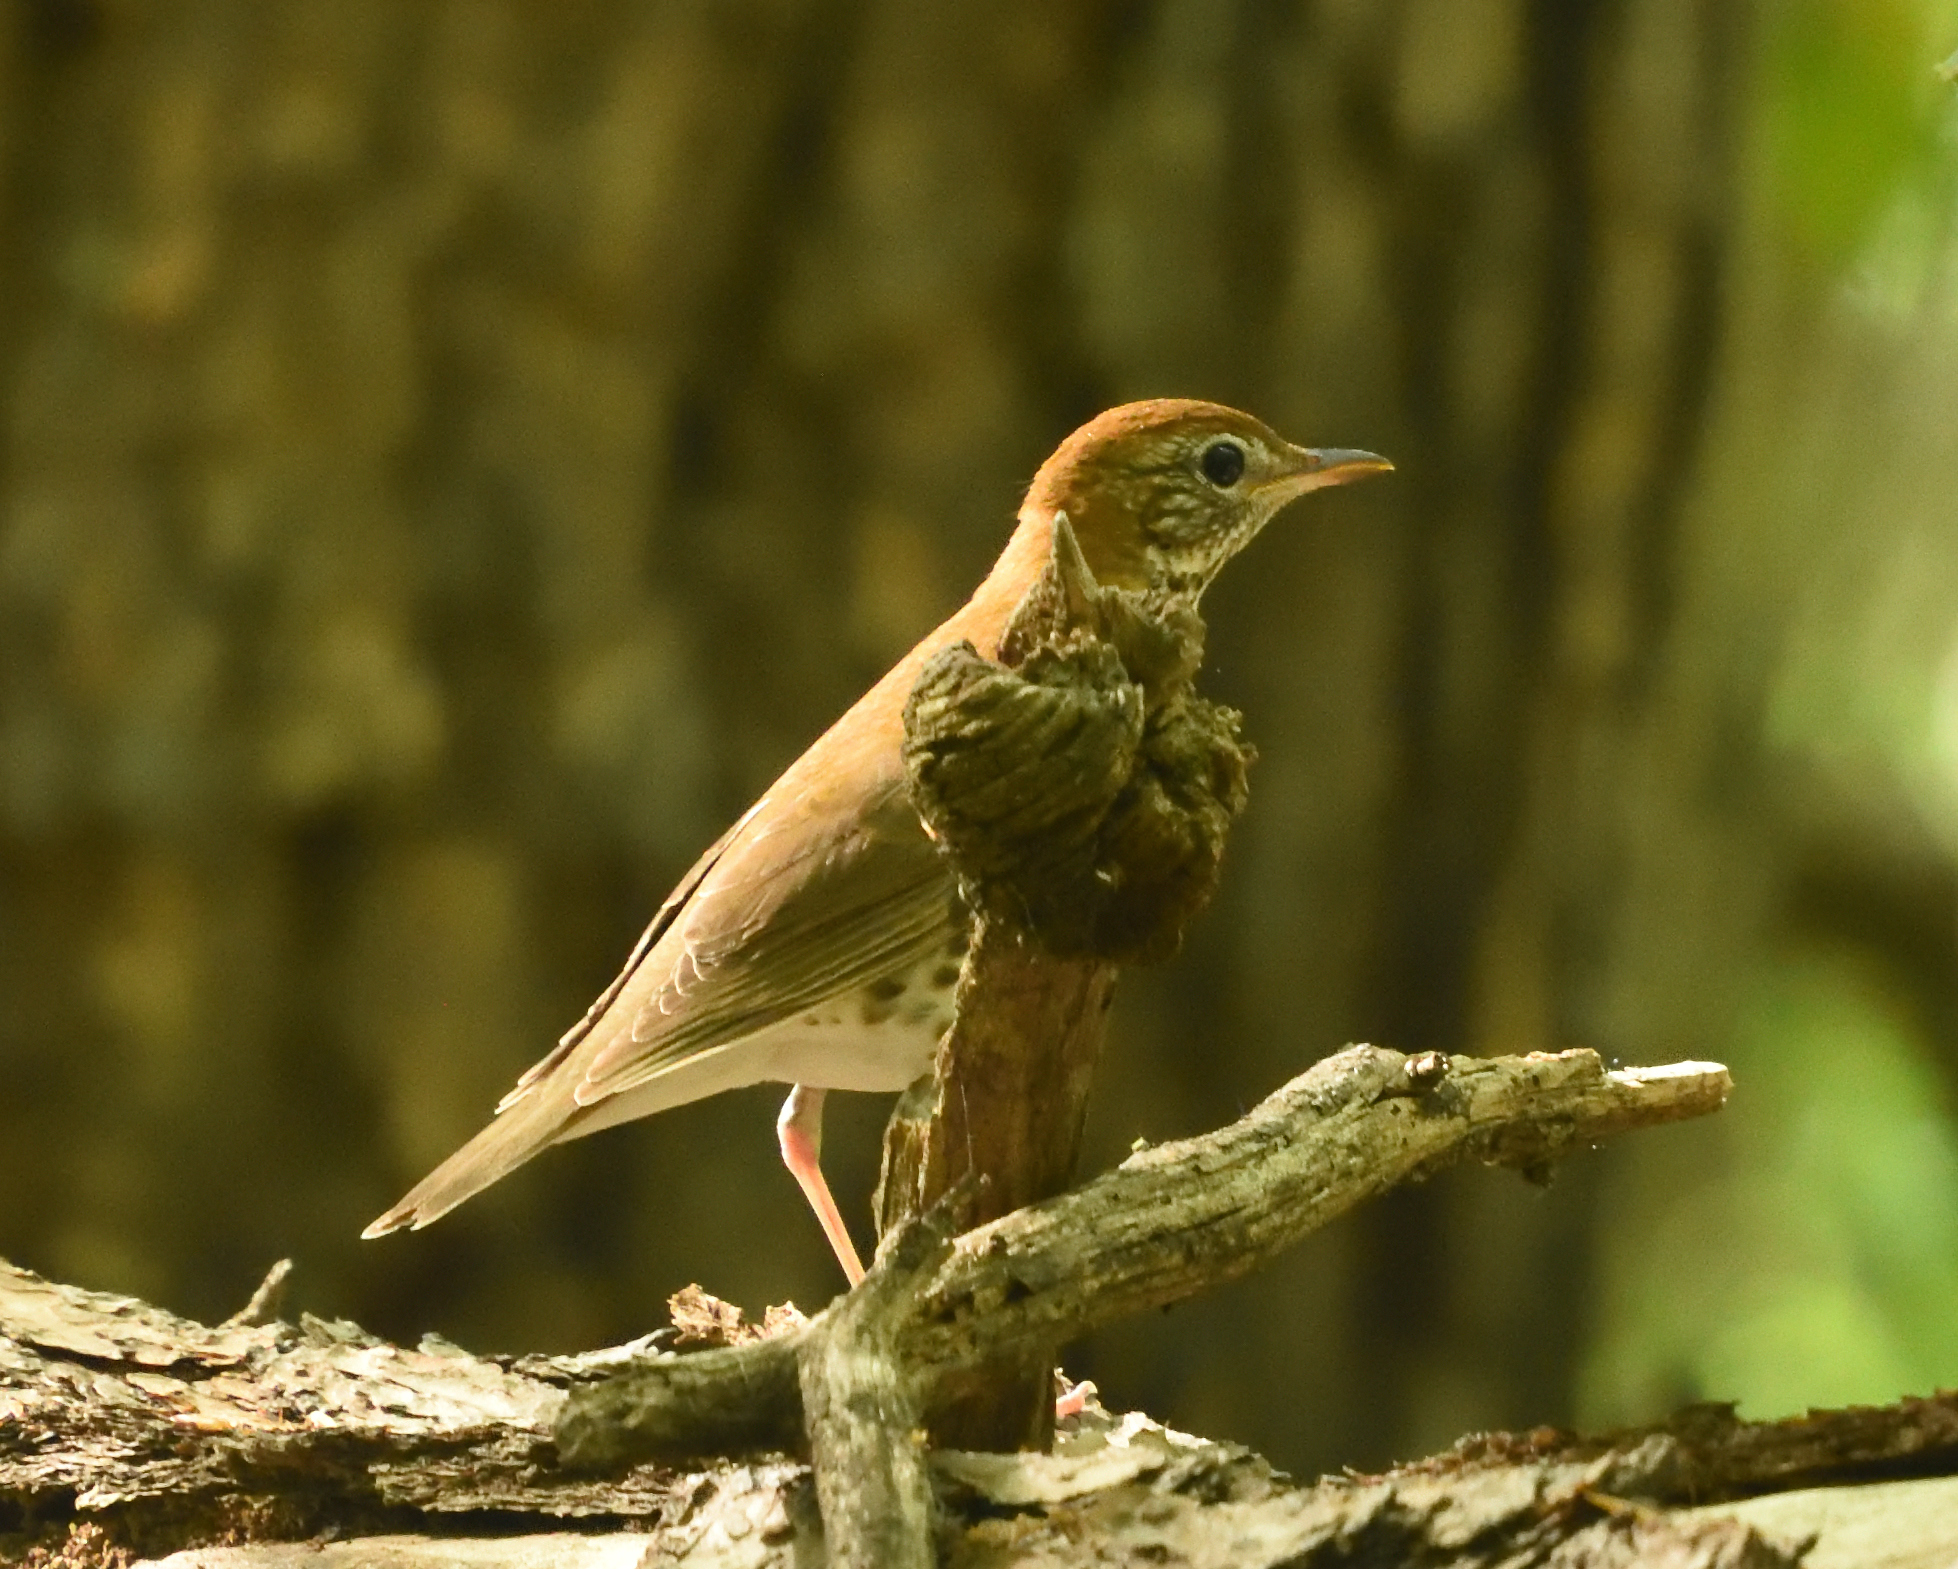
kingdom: Animalia
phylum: Chordata
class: Aves
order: Passeriformes
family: Turdidae
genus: Hylocichla
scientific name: Hylocichla mustelina
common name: Wood thrush
